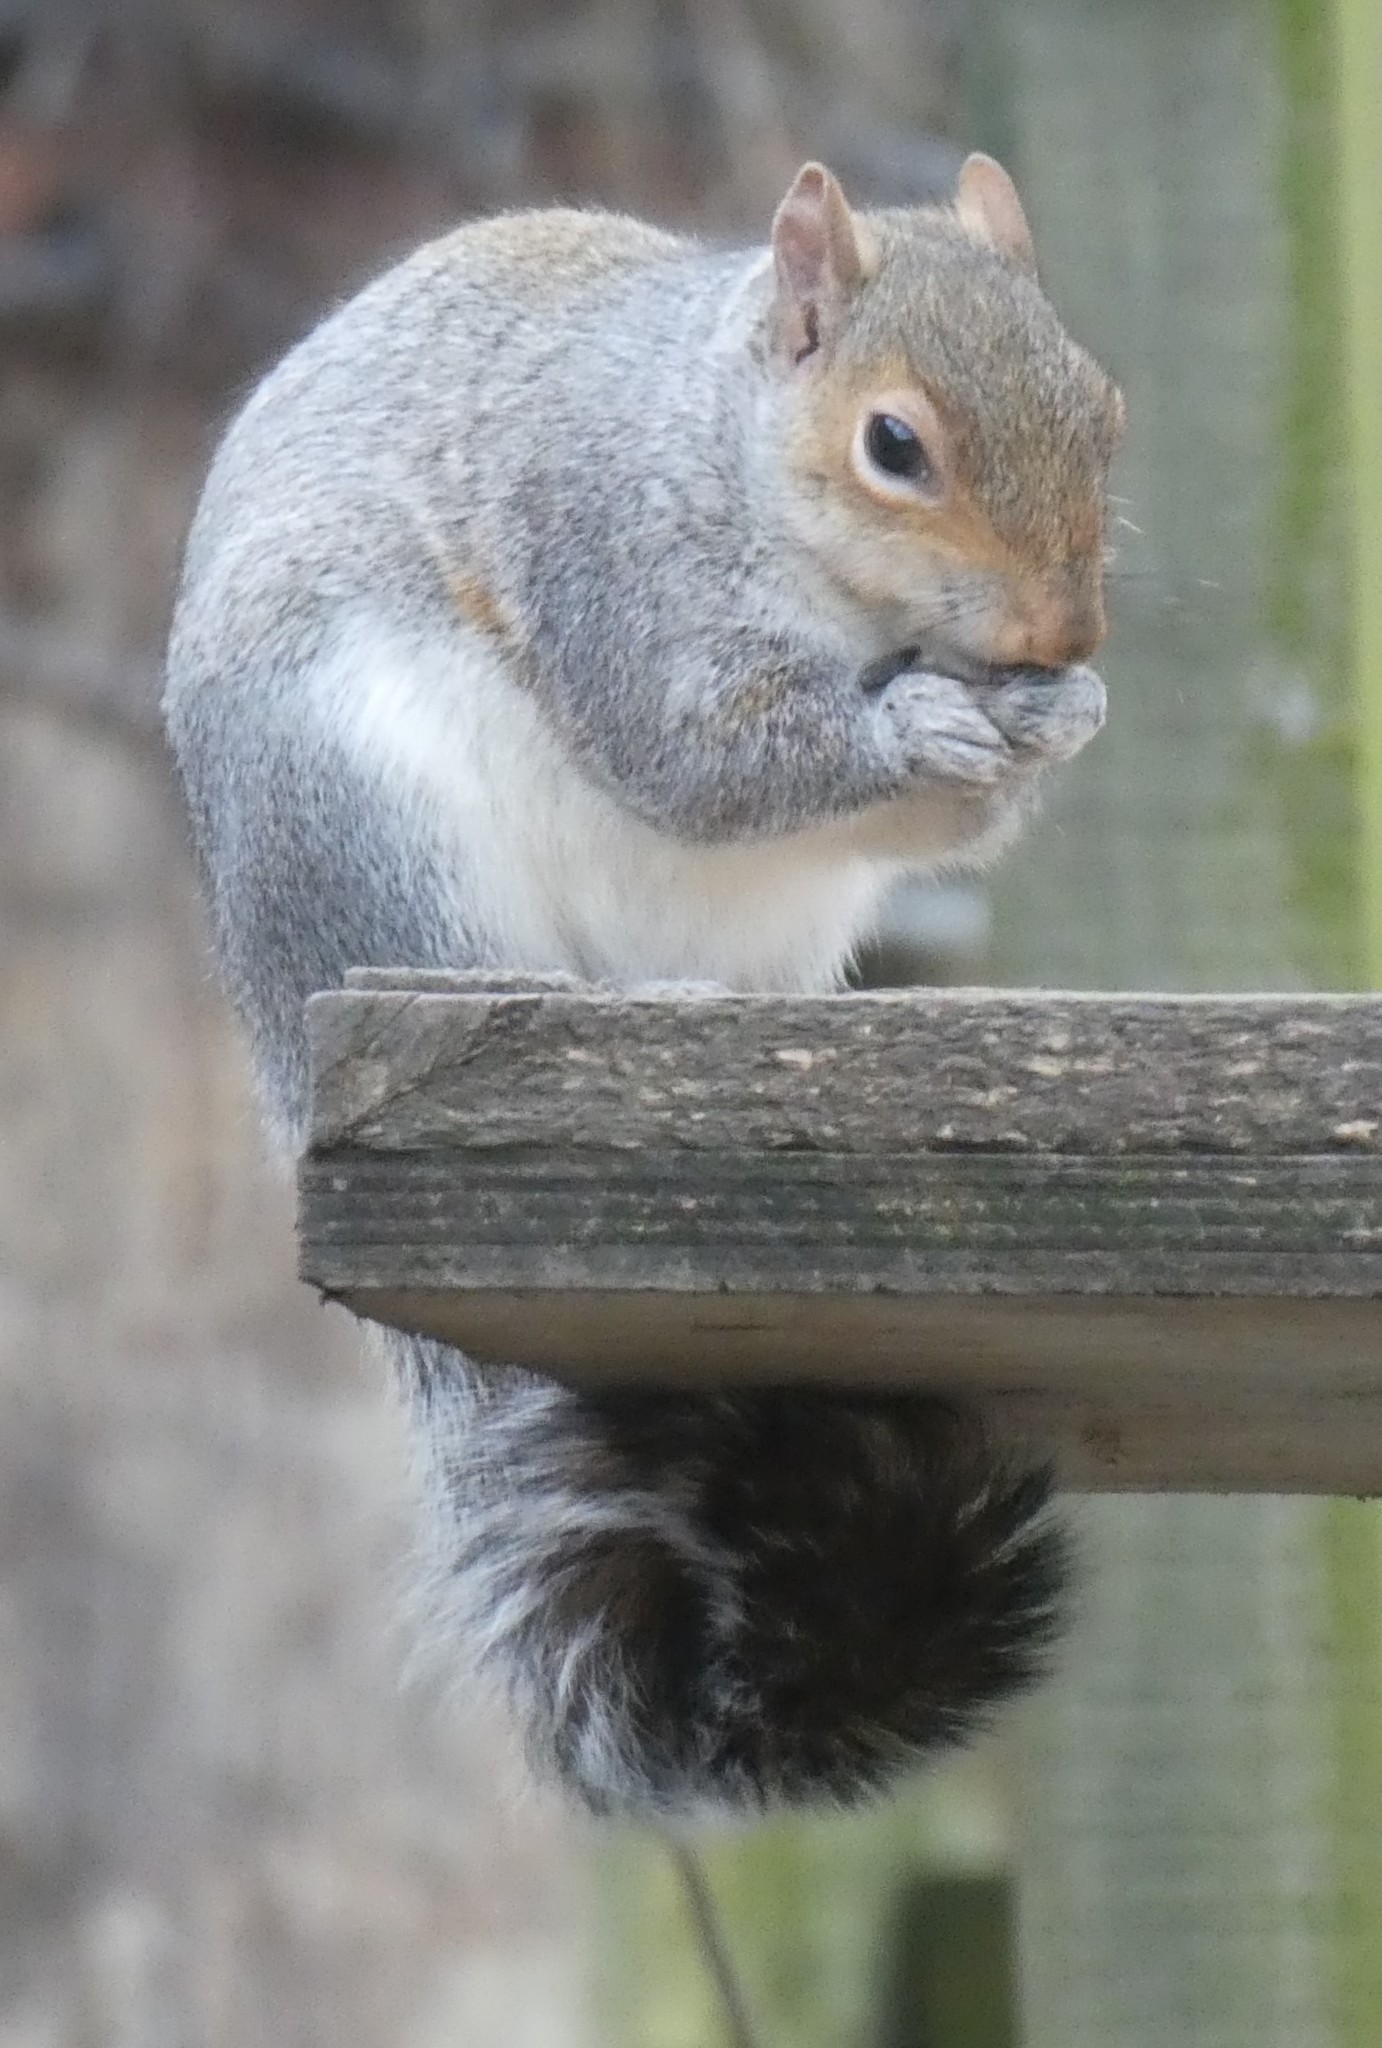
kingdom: Animalia
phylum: Chordata
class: Mammalia
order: Rodentia
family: Sciuridae
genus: Sciurus
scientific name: Sciurus carolinensis
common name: Eastern gray squirrel
